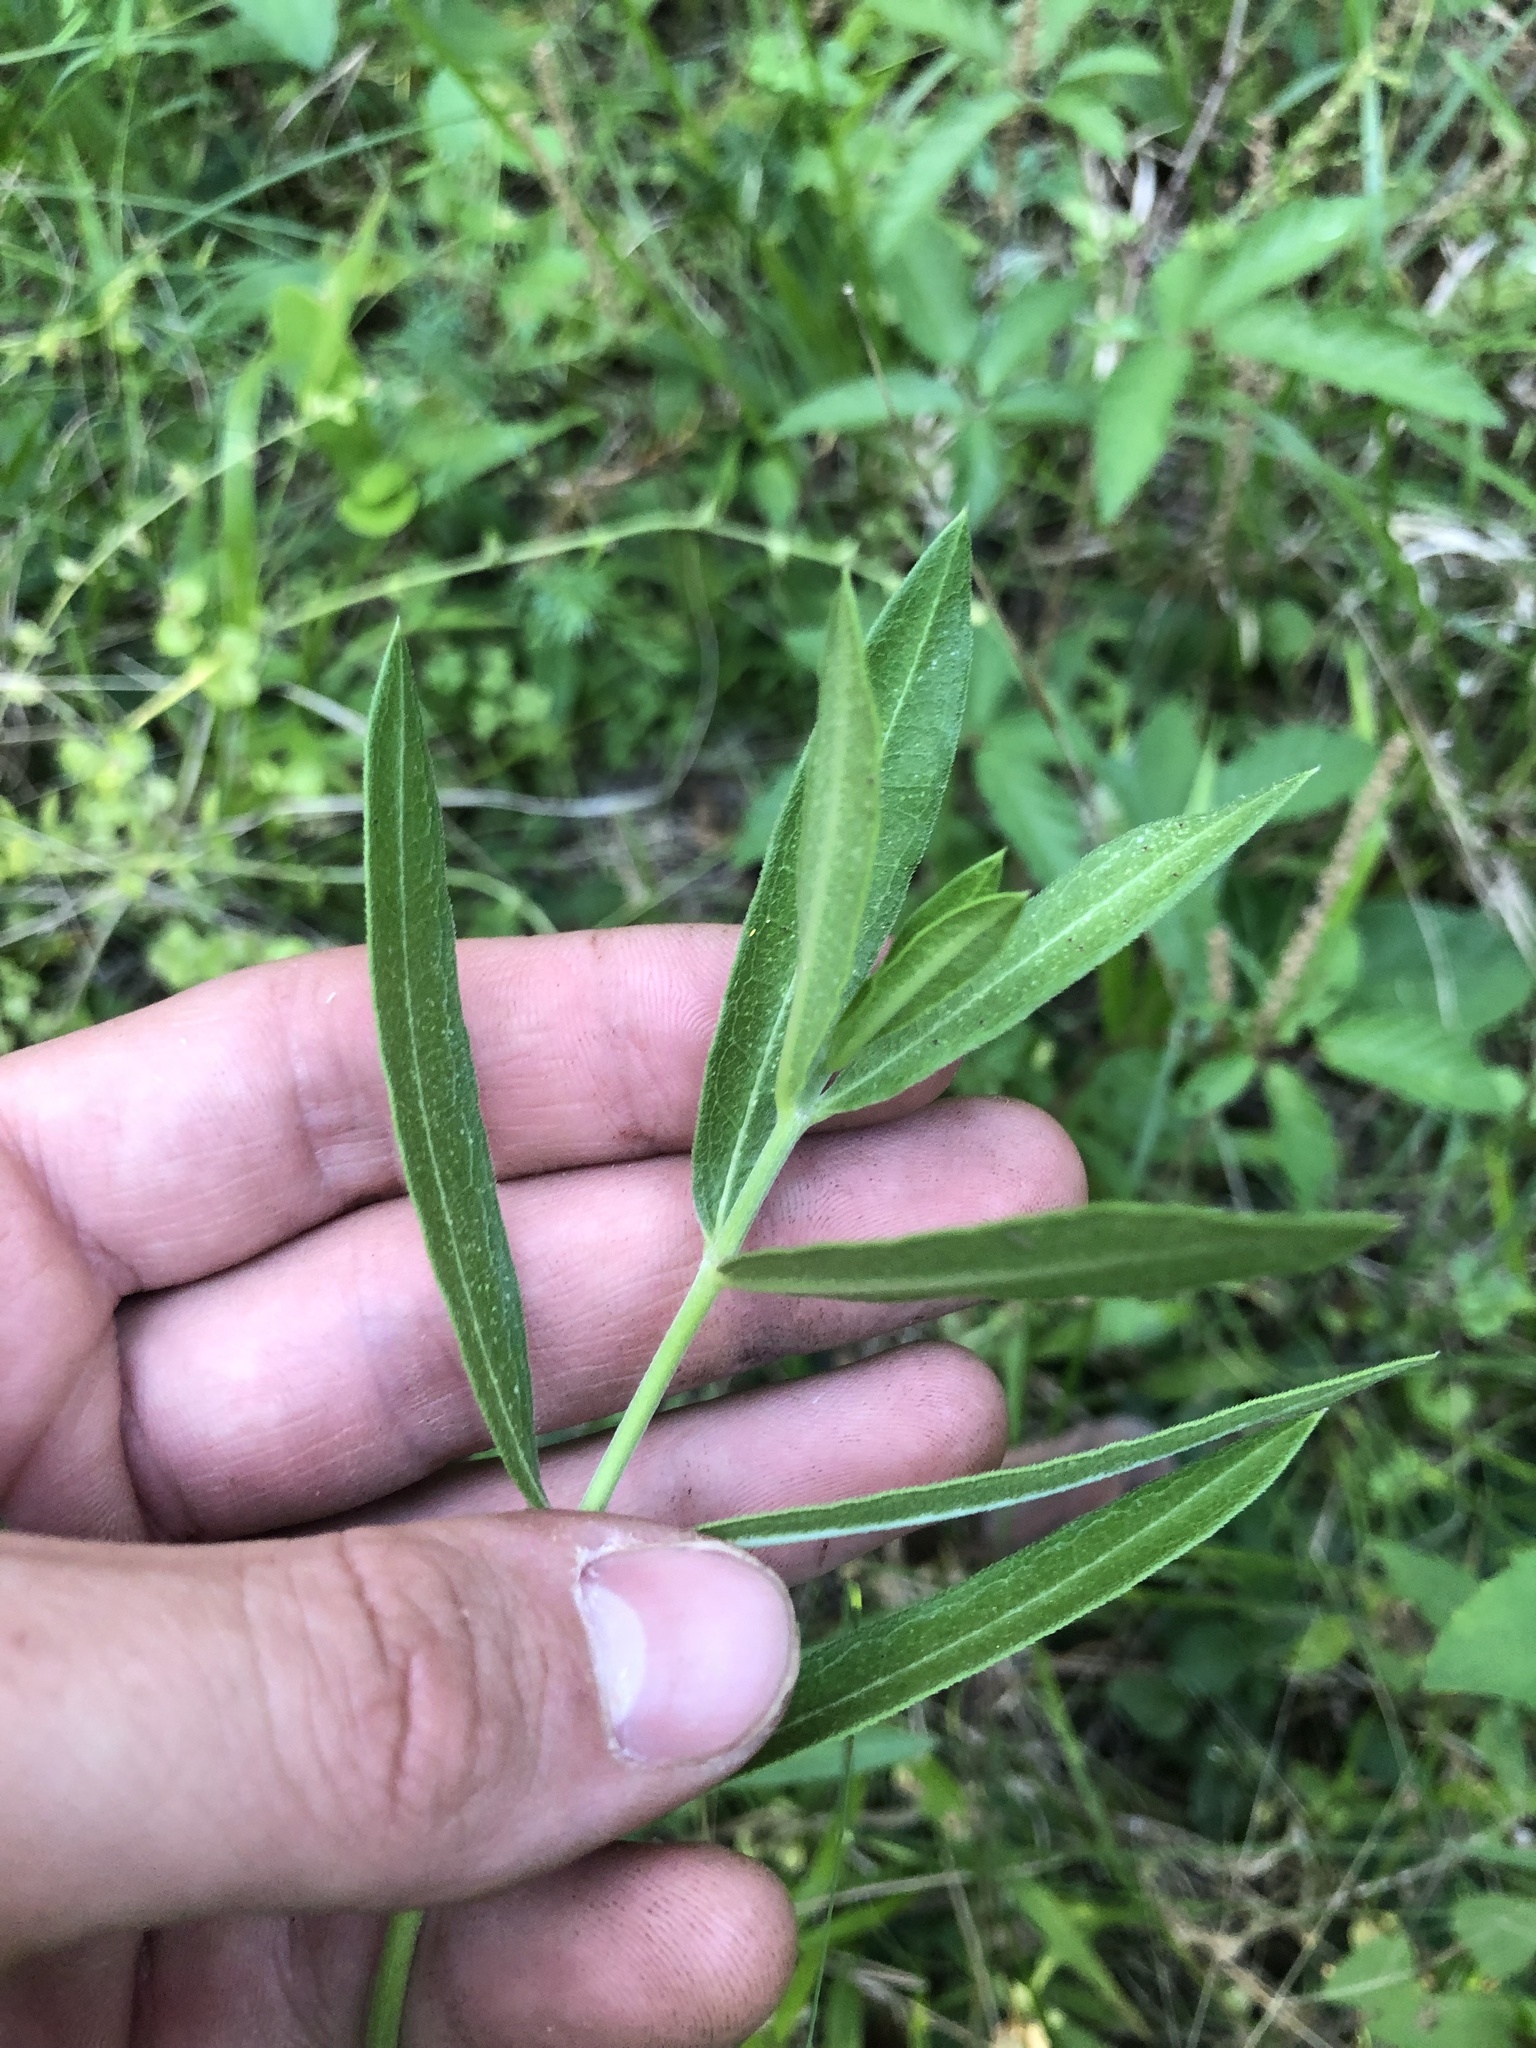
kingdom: Plantae
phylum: Tracheophyta
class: Magnoliopsida
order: Gentianales
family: Apocynaceae
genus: Asclepias
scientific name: Asclepias viridiflora
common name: Green comet milkweed
